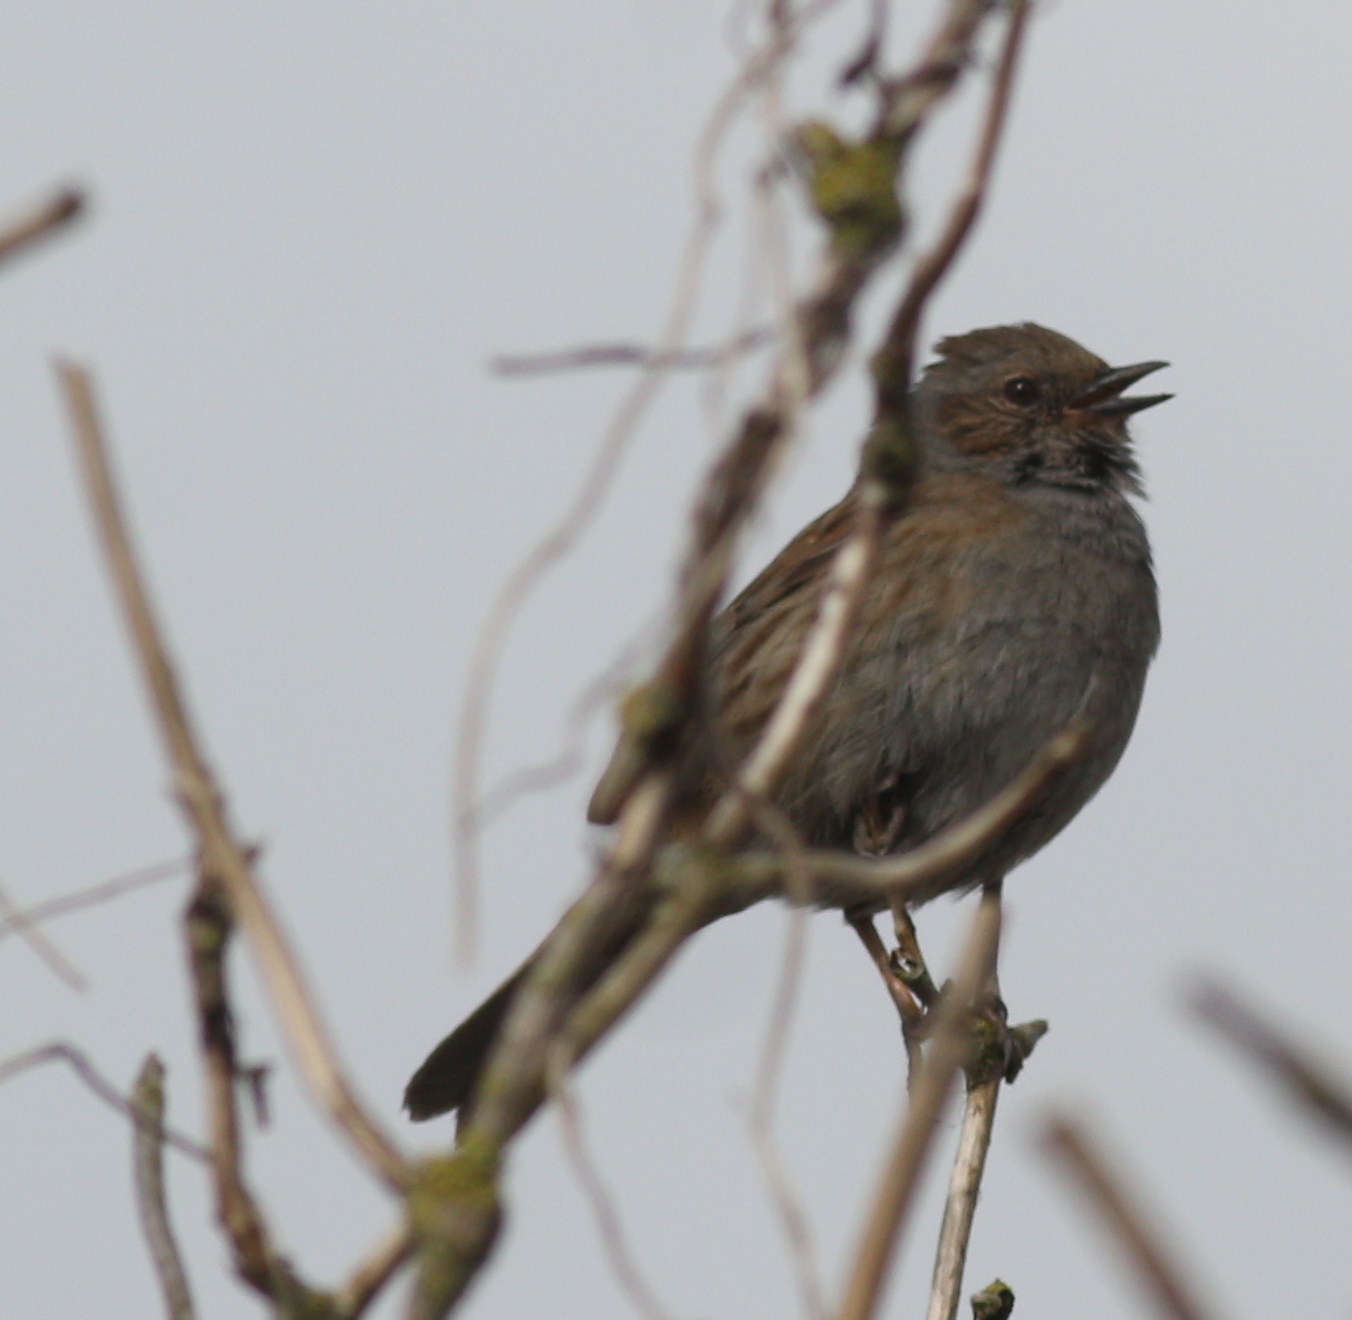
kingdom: Animalia
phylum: Chordata
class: Aves
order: Passeriformes
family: Prunellidae
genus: Prunella
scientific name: Prunella modularis
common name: Dunnock
